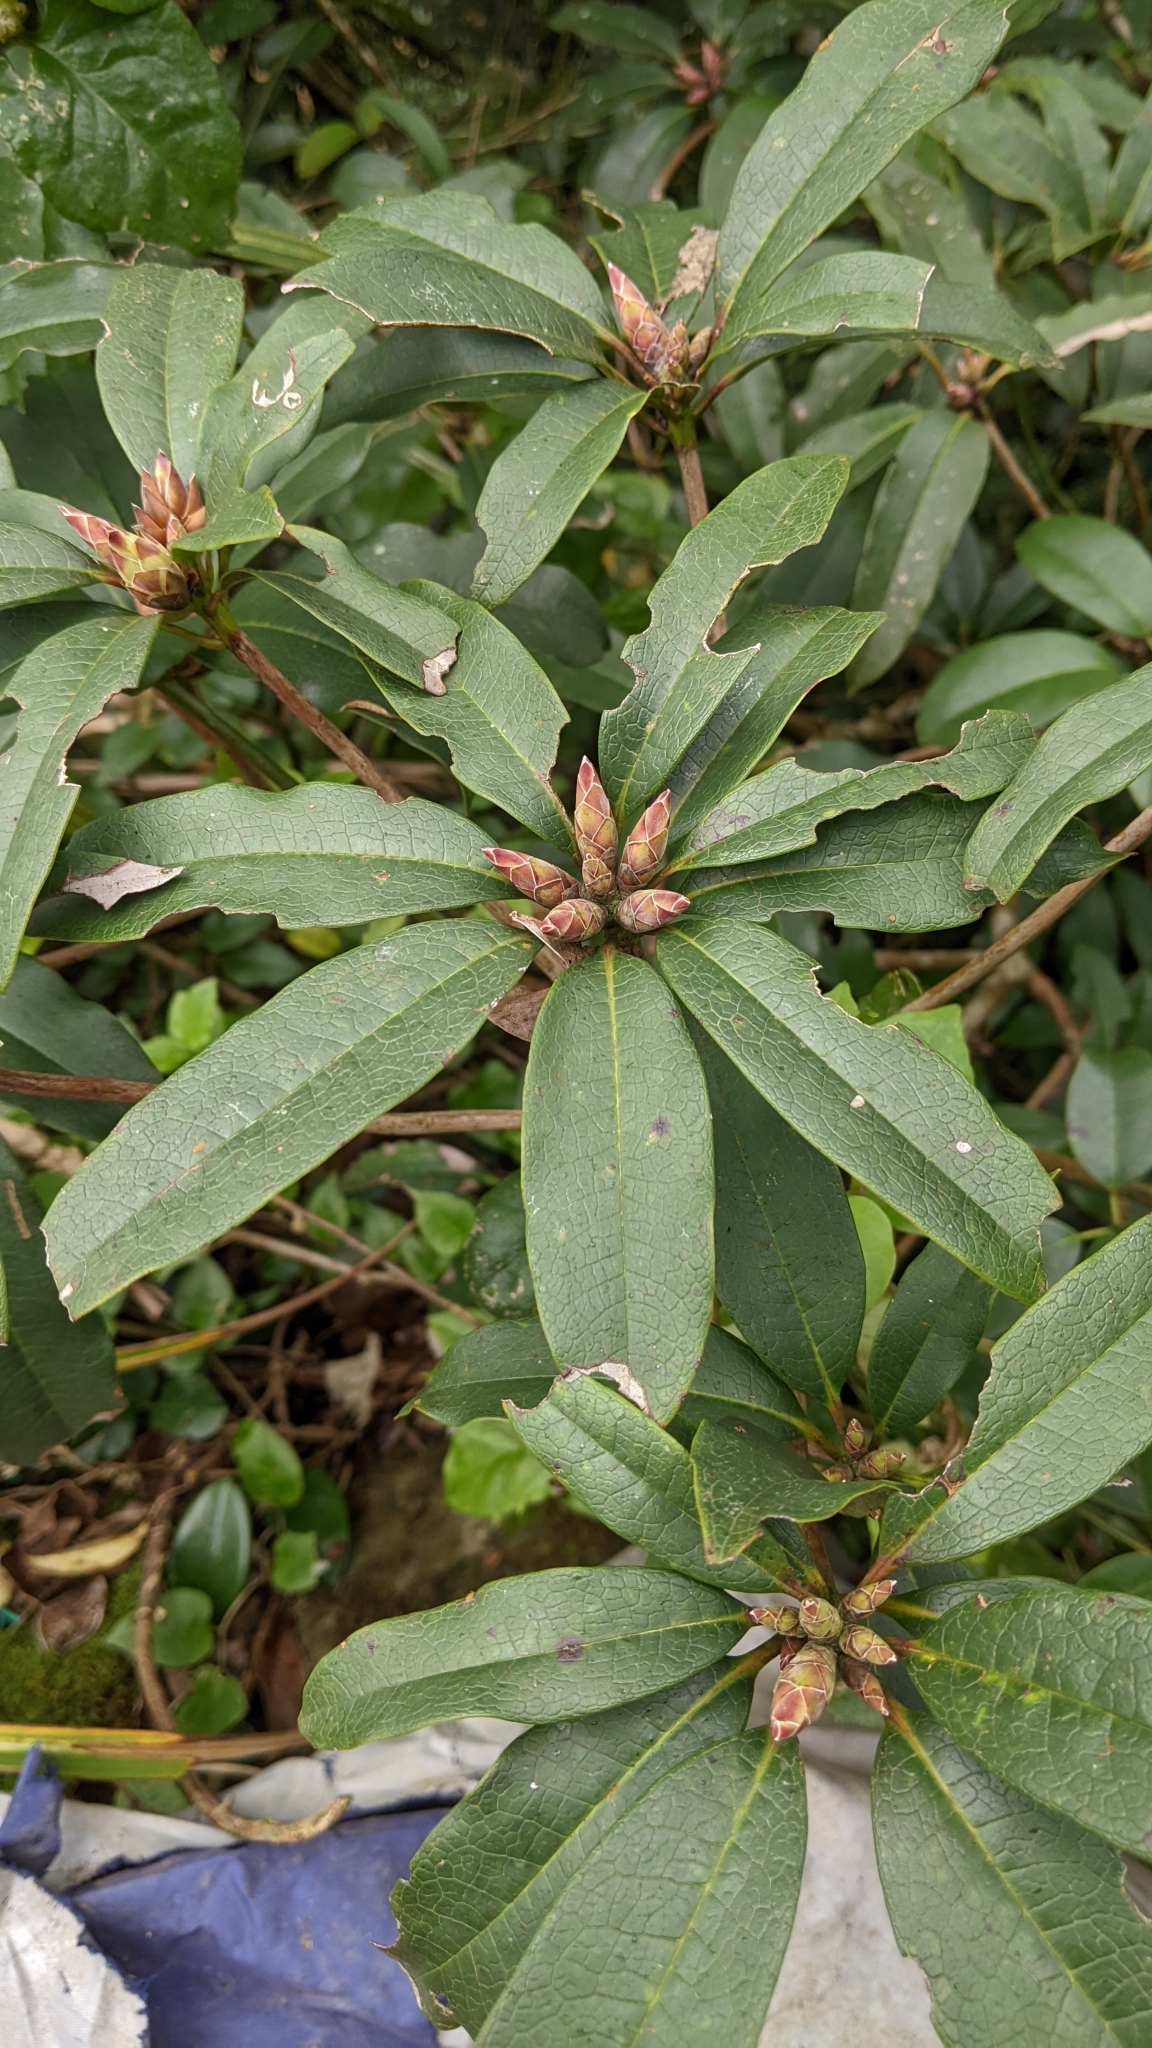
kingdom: Plantae
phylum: Tracheophyta
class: Magnoliopsida
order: Ericales
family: Ericaceae
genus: Rhododendron
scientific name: Rhododendron latoucheae
